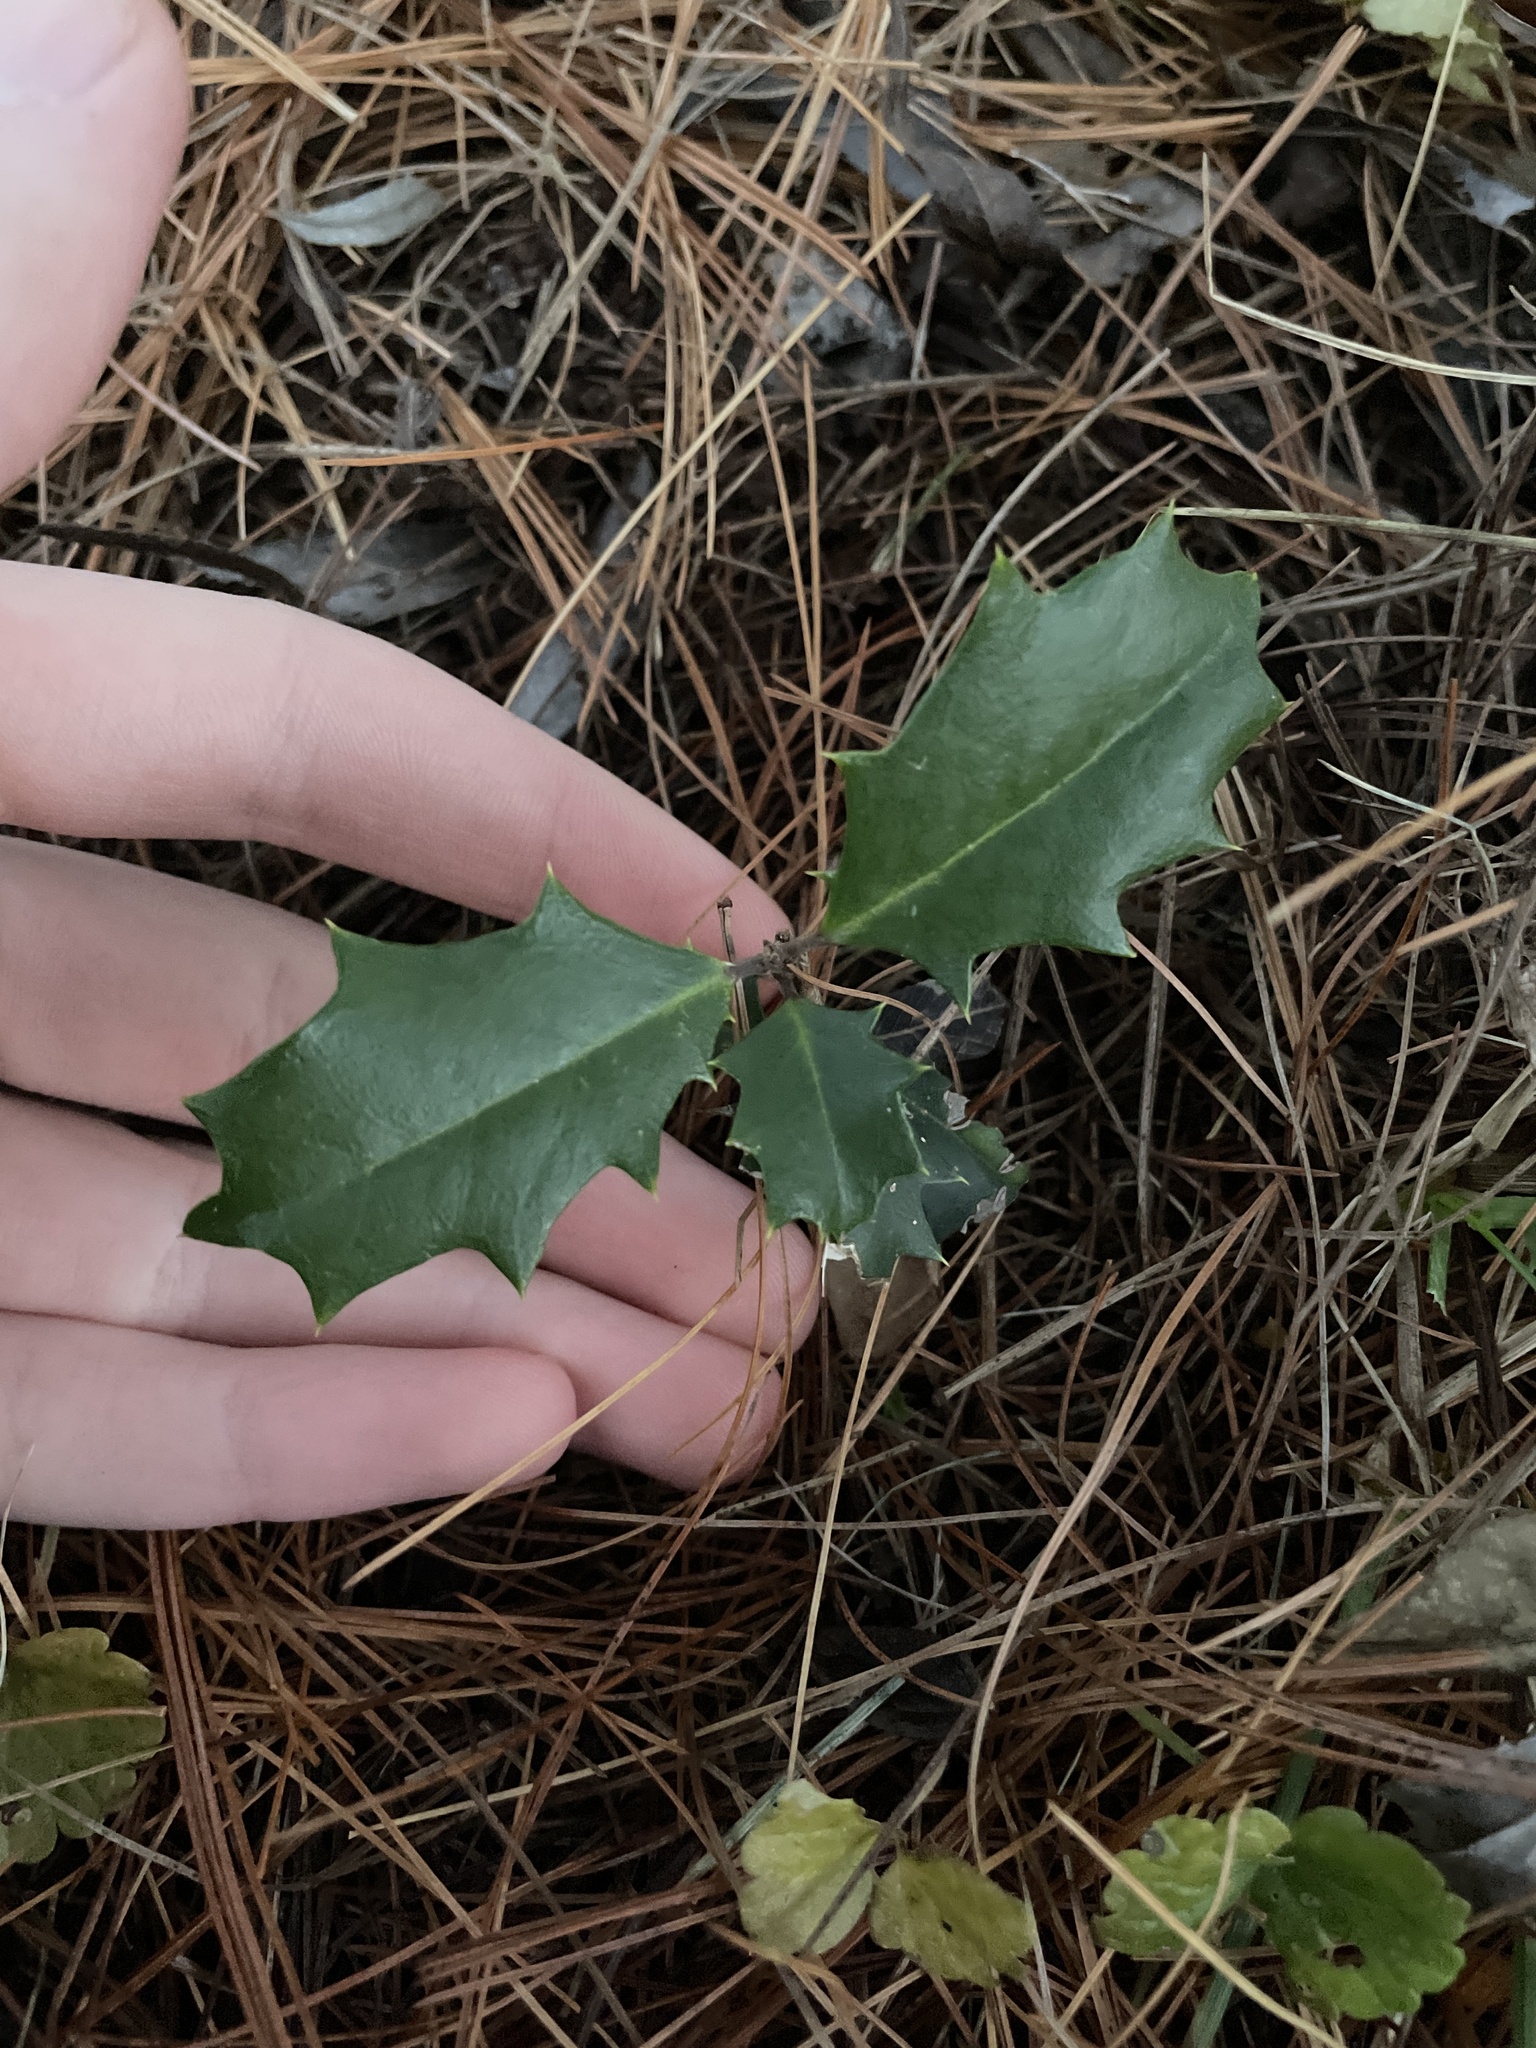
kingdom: Plantae
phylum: Tracheophyta
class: Magnoliopsida
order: Aquifoliales
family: Aquifoliaceae
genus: Ilex
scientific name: Ilex opaca
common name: American holly
